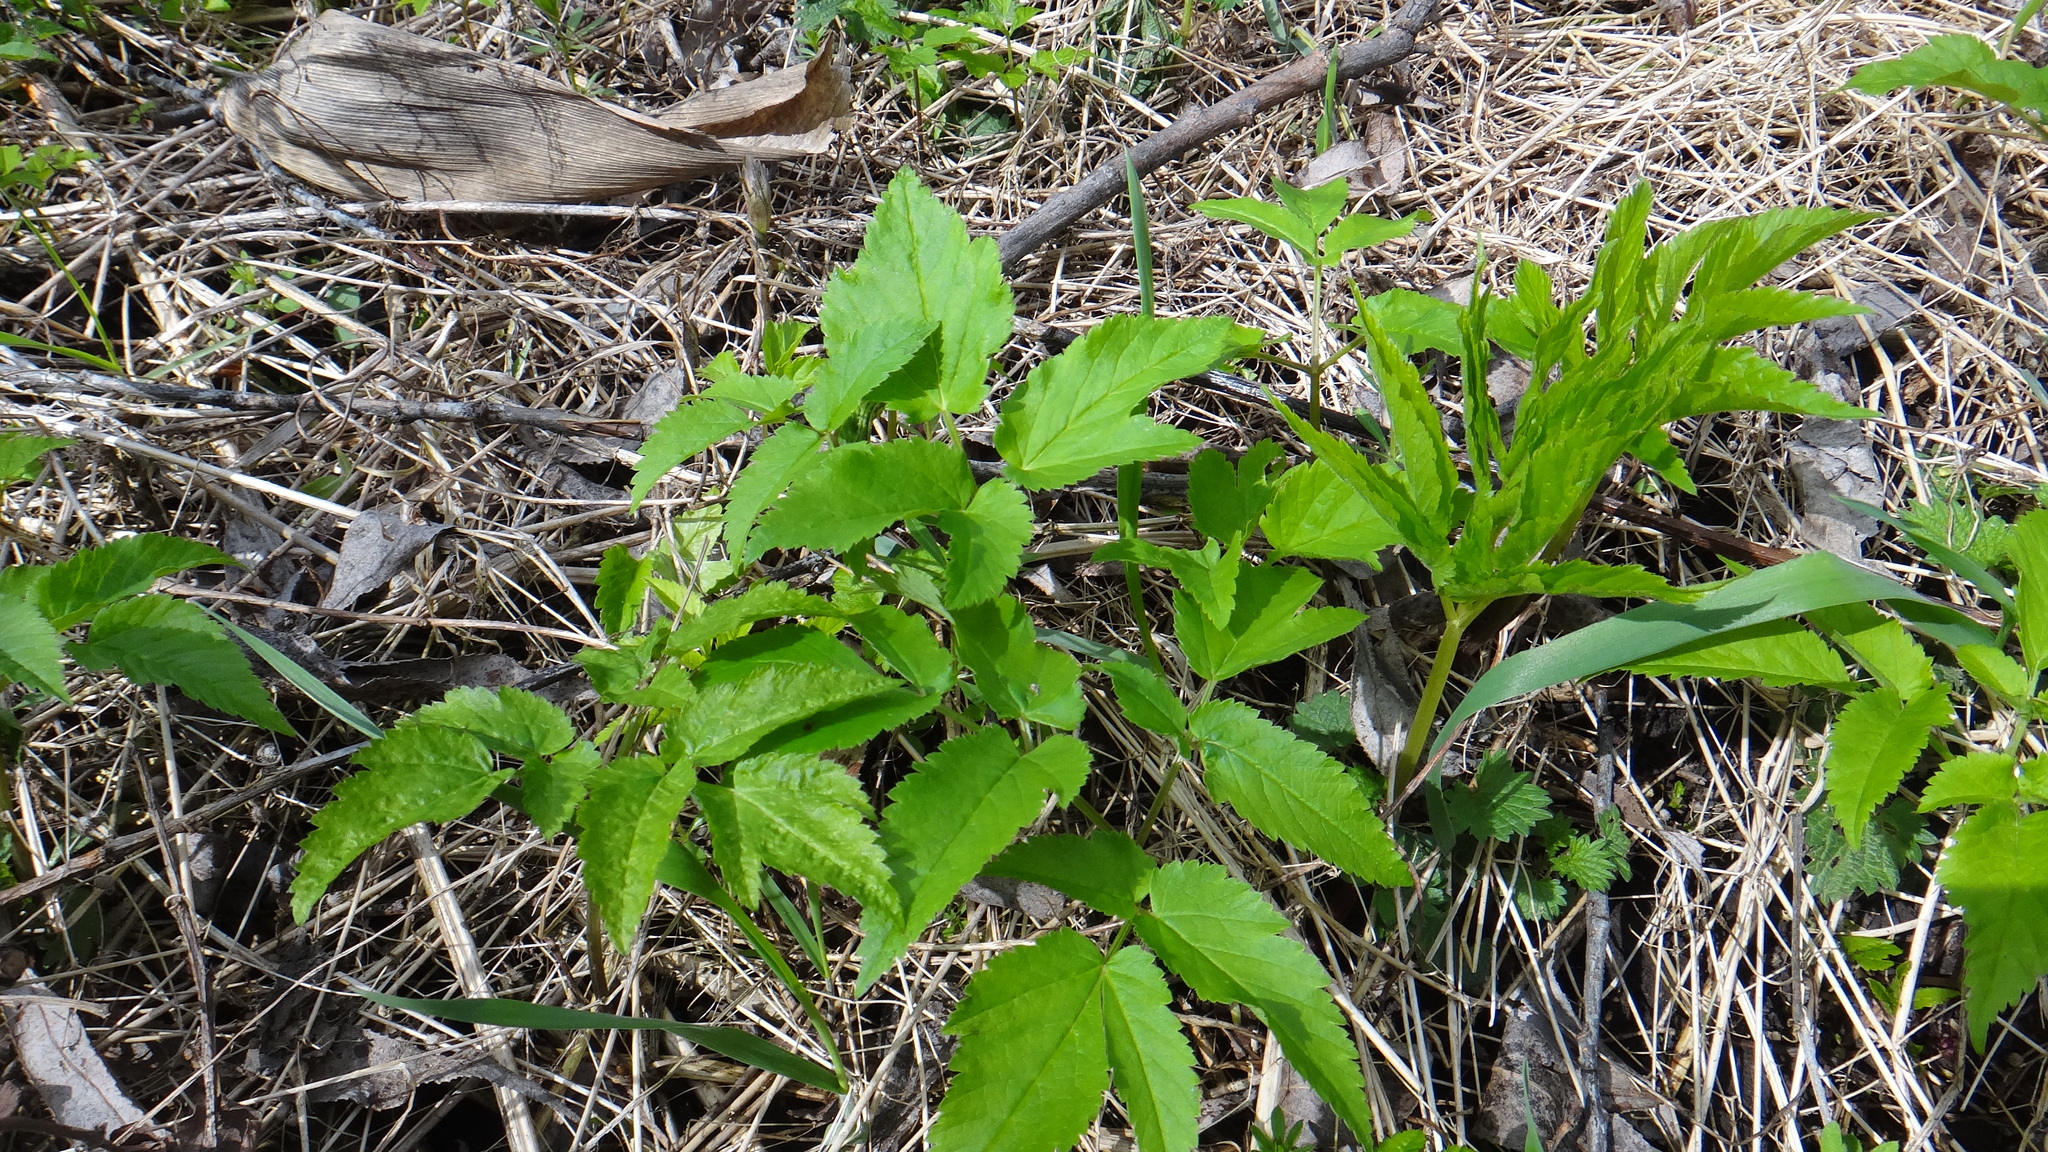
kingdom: Plantae
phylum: Tracheophyta
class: Magnoliopsida
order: Apiales
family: Apiaceae
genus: Aegopodium
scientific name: Aegopodium podagraria
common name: Ground-elder
